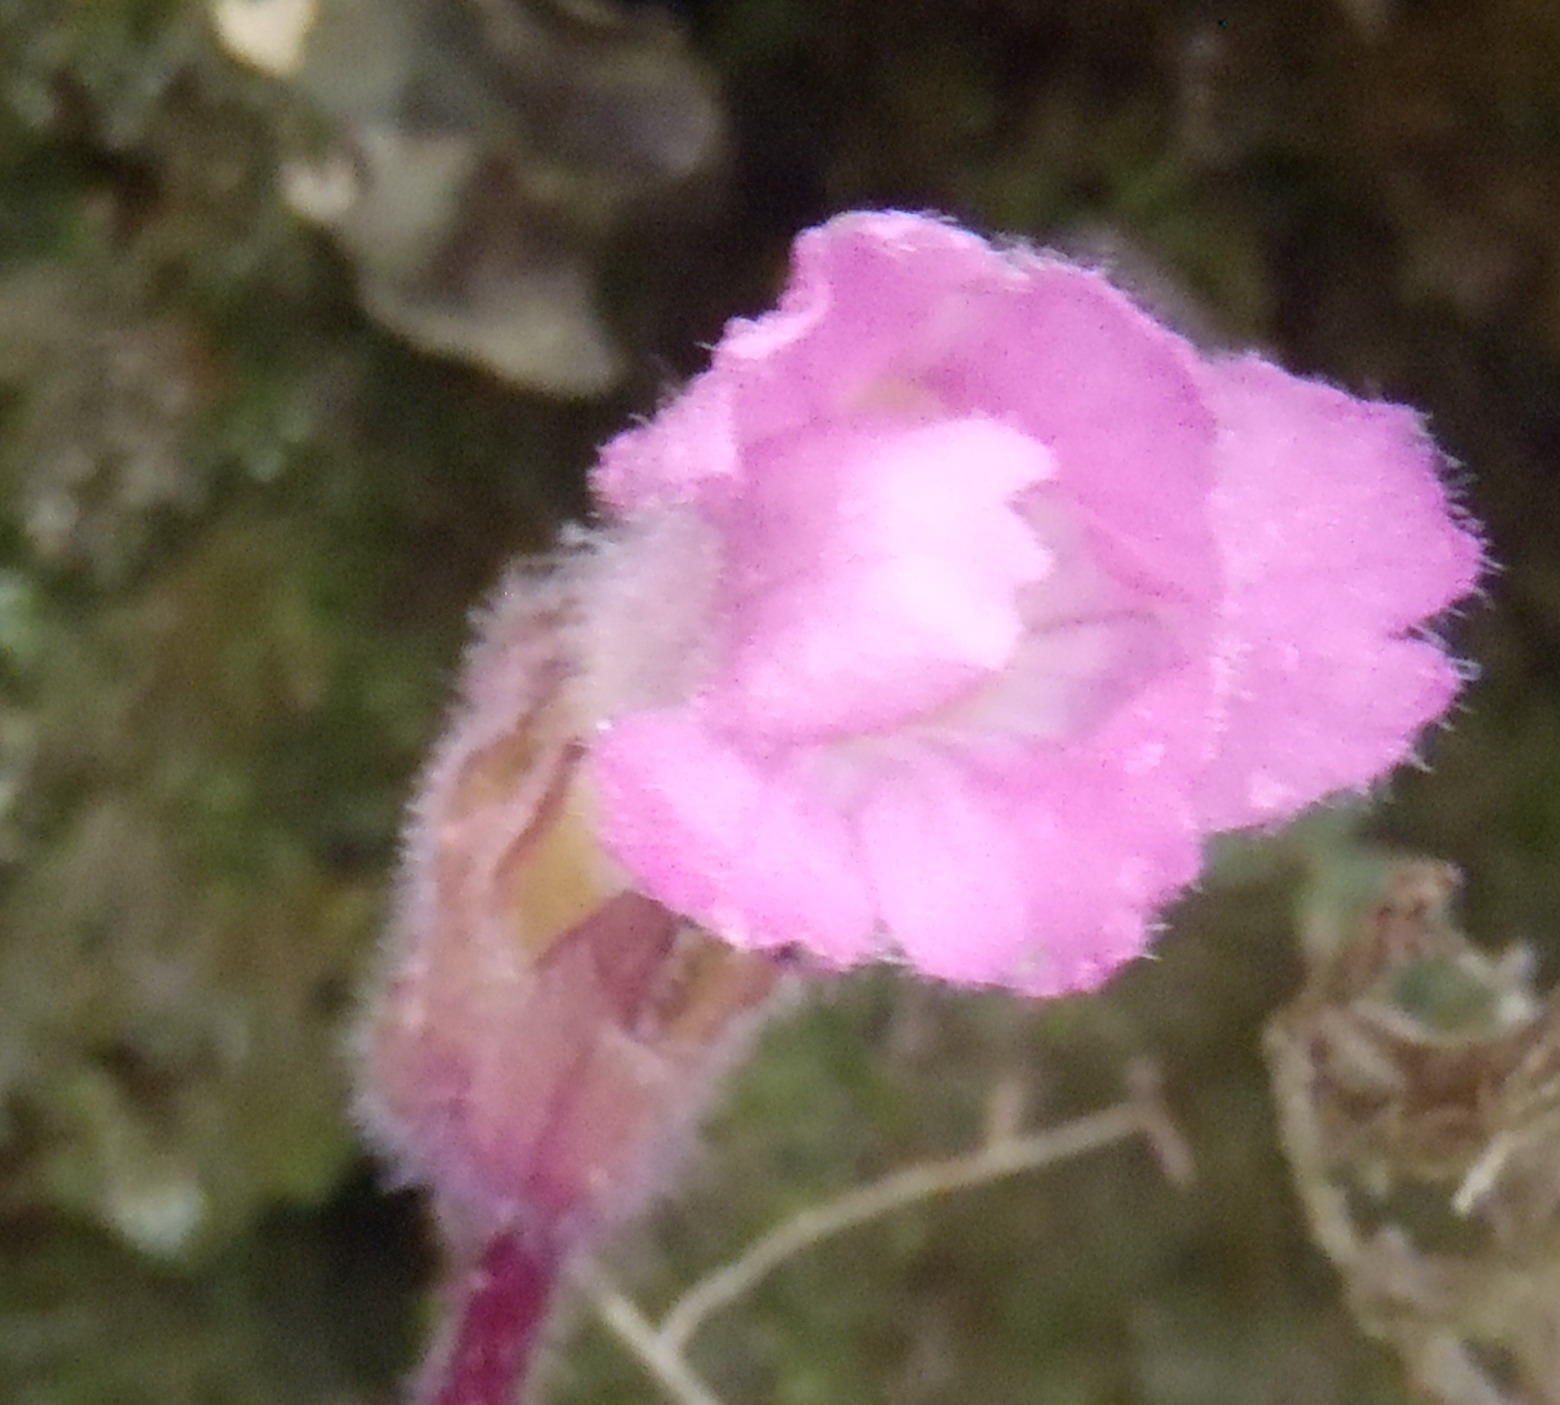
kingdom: Plantae
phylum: Tracheophyta
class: Magnoliopsida
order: Lamiales
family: Orobanchaceae
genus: Harveya
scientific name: Harveya purpurea
